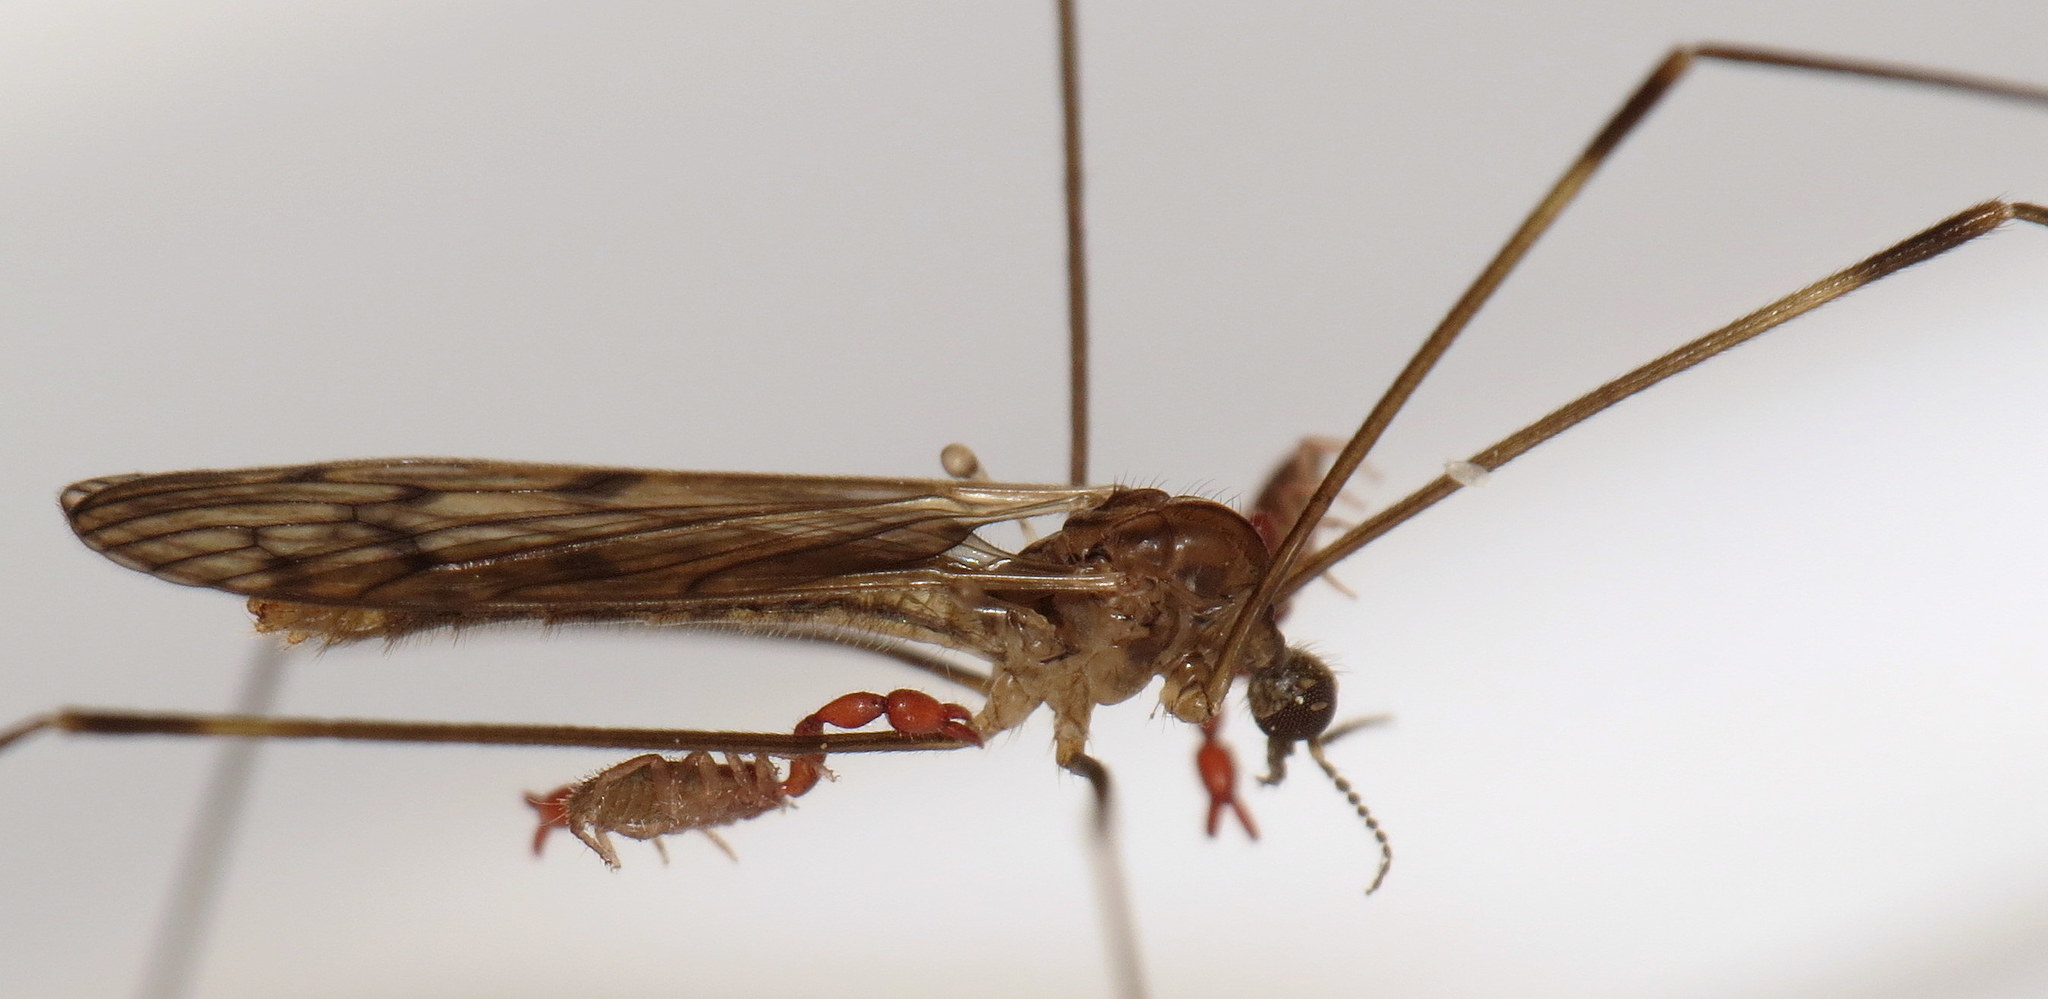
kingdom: Animalia
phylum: Arthropoda
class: Insecta
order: Diptera
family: Limoniidae
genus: Metalimnobia
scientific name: Metalimnobia novaeangliae
